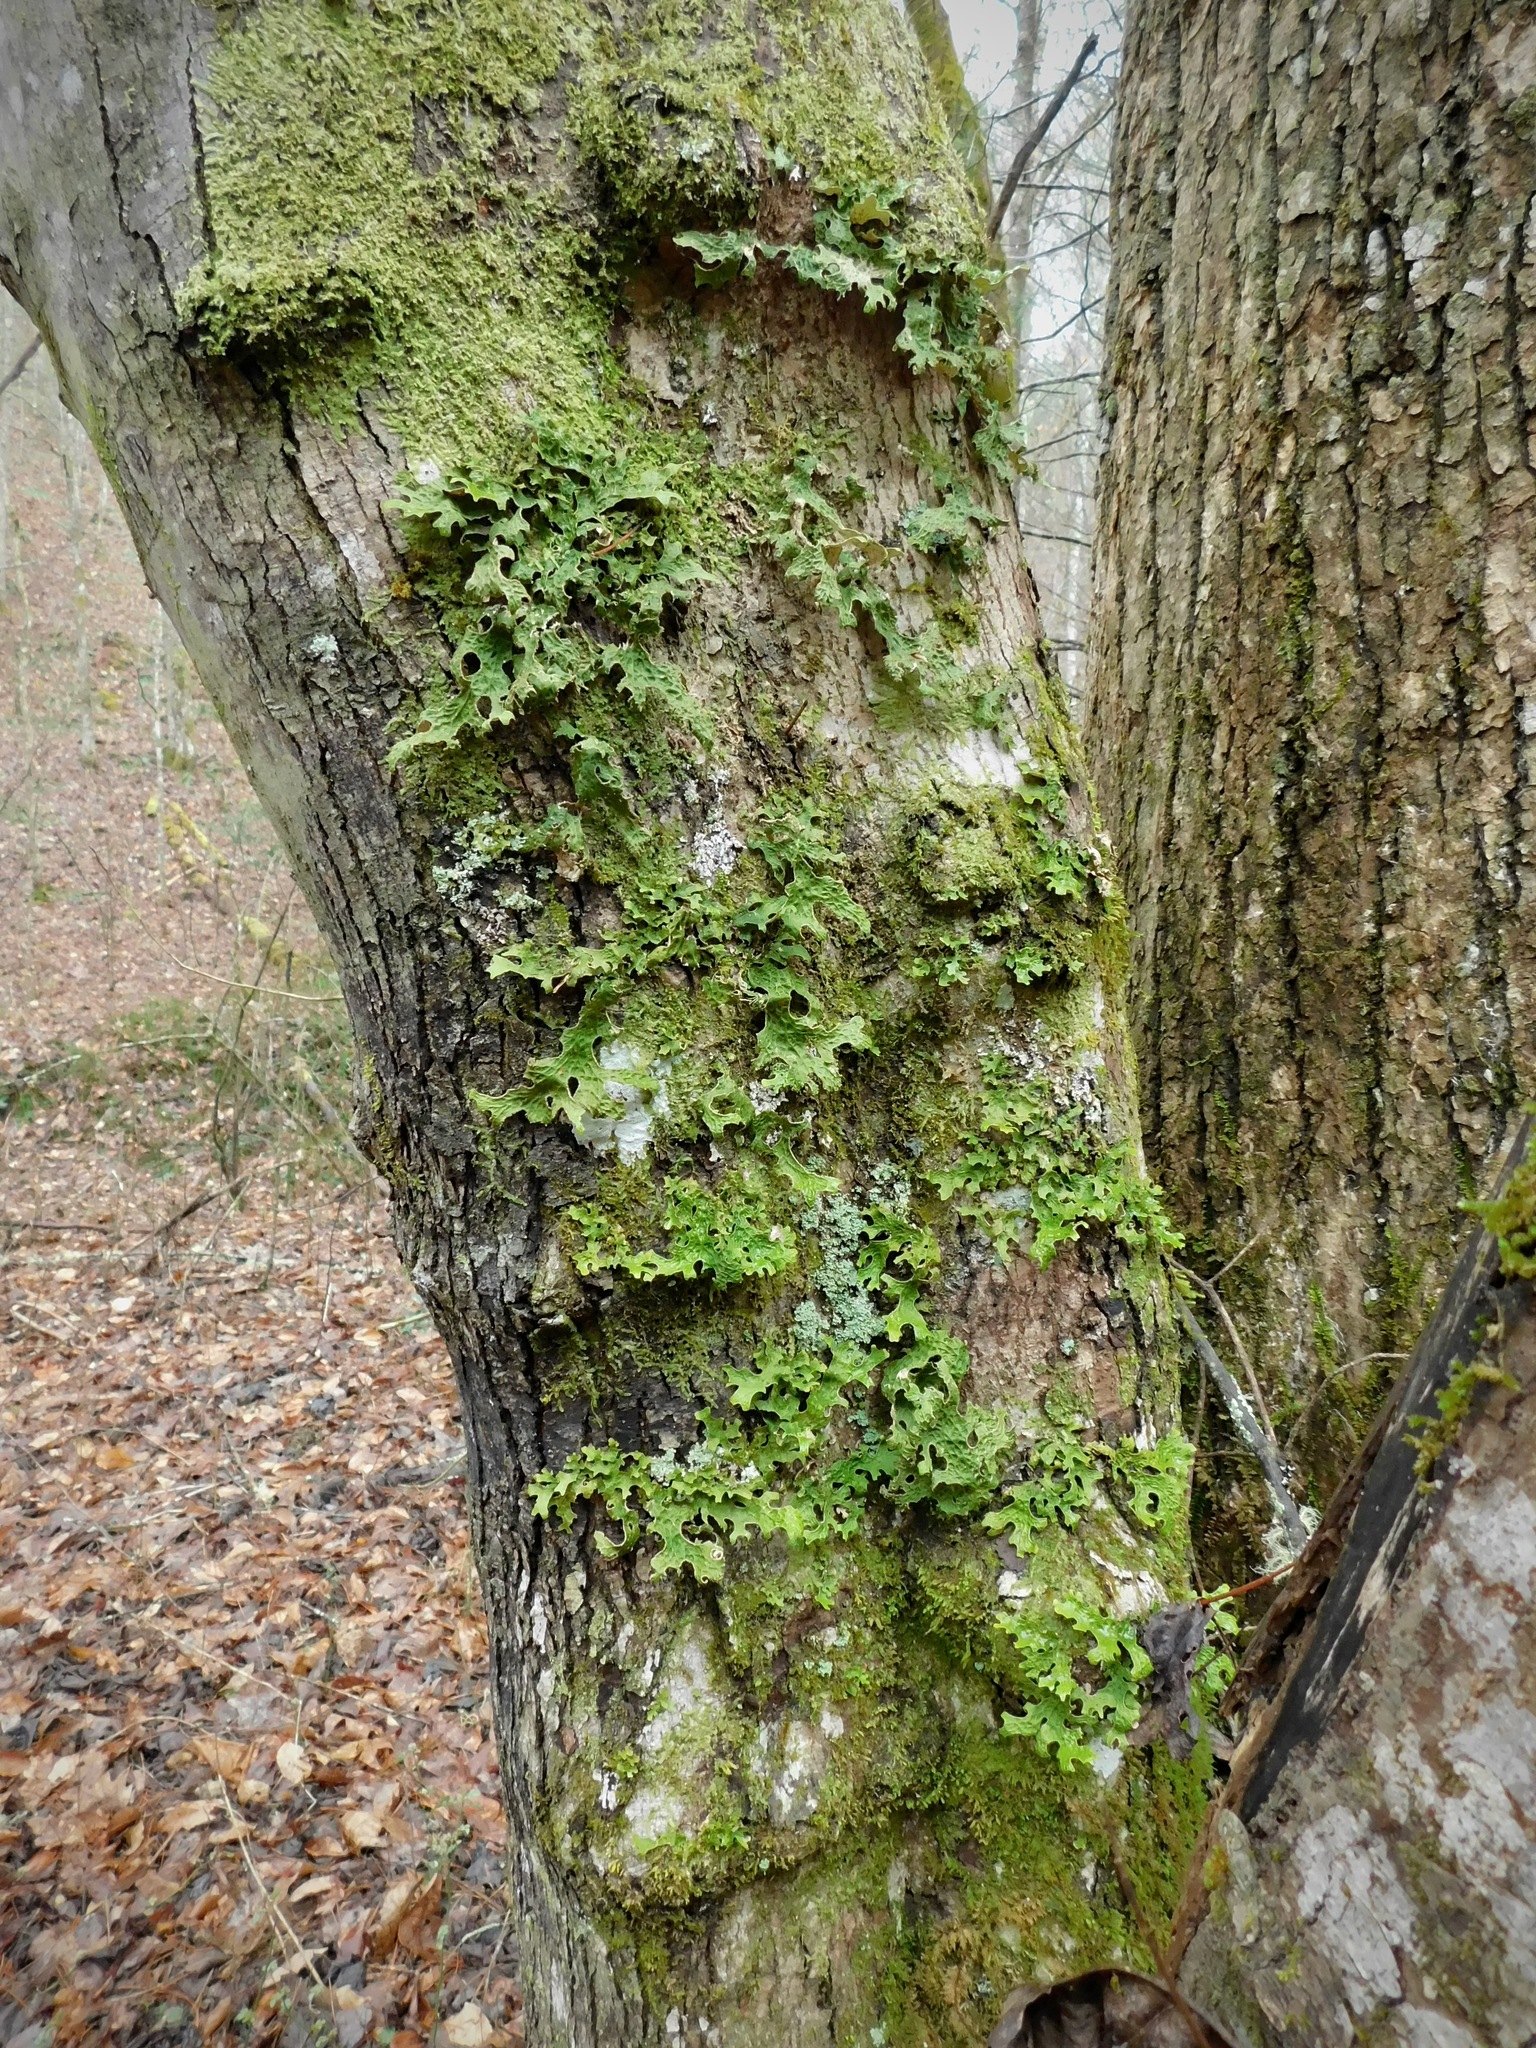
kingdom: Fungi
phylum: Ascomycota
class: Lecanoromycetes
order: Peltigerales
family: Lobariaceae
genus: Lobaria
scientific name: Lobaria pulmonaria
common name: Lungwort
